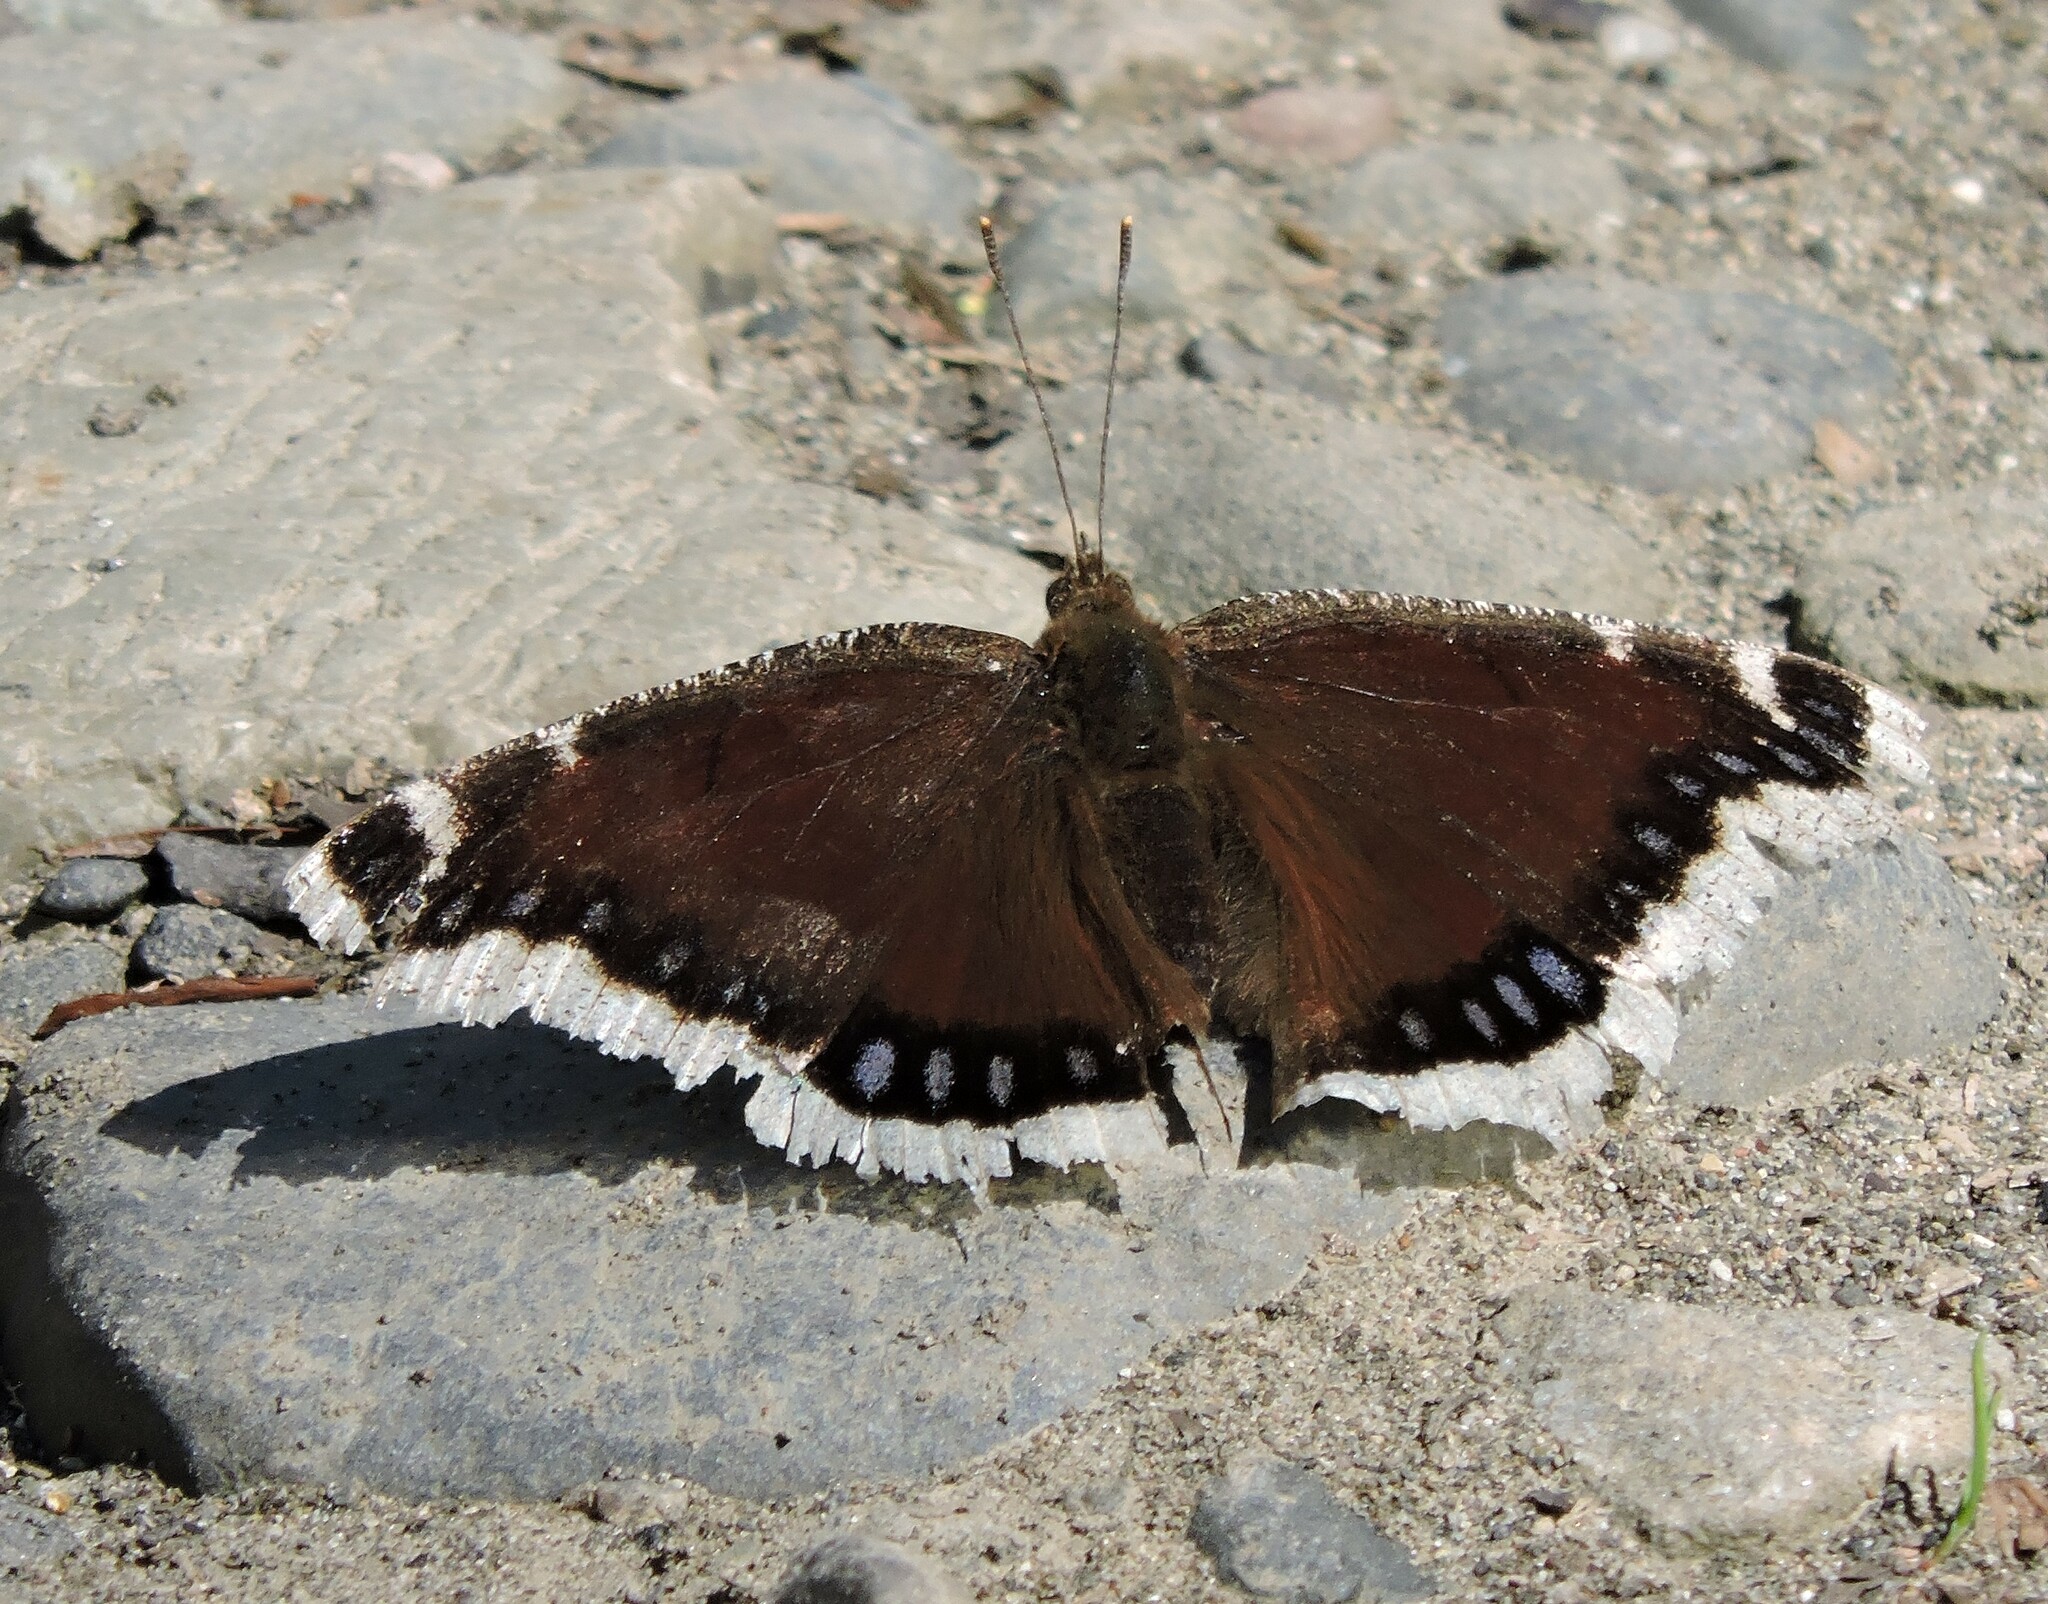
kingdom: Animalia
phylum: Arthropoda
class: Insecta
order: Lepidoptera
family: Nymphalidae
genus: Nymphalis
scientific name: Nymphalis antiopa
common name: Camberwell beauty
